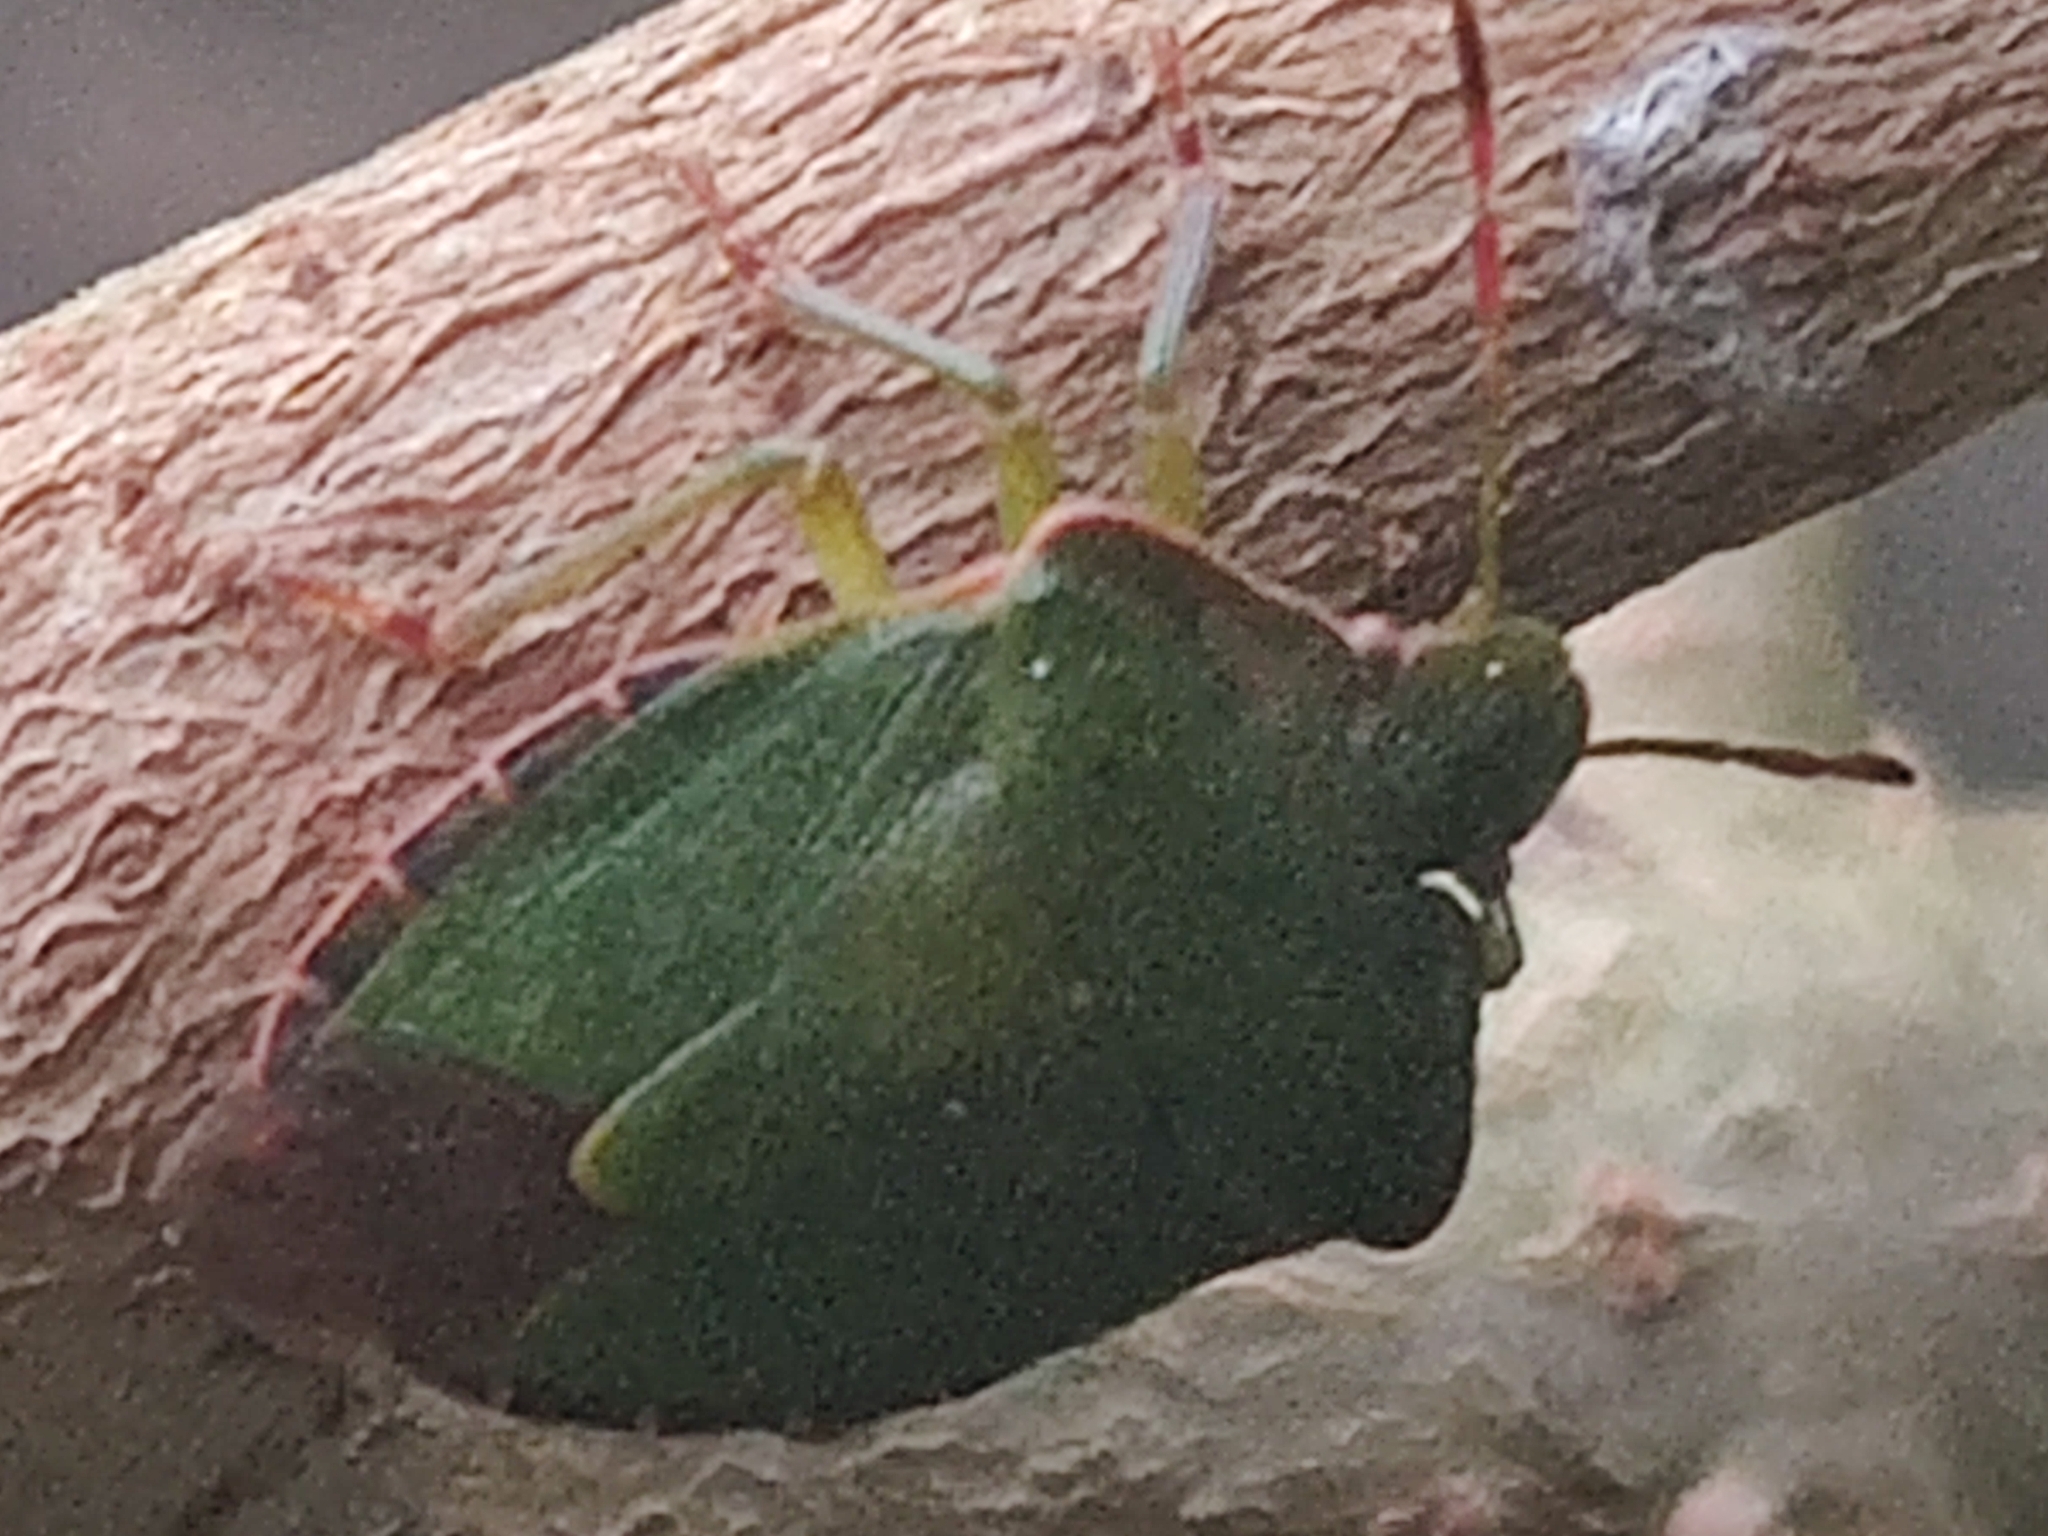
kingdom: Animalia
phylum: Arthropoda
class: Insecta
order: Hemiptera
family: Pentatomidae
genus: Palomena
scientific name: Palomena prasina
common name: Green shieldbug
